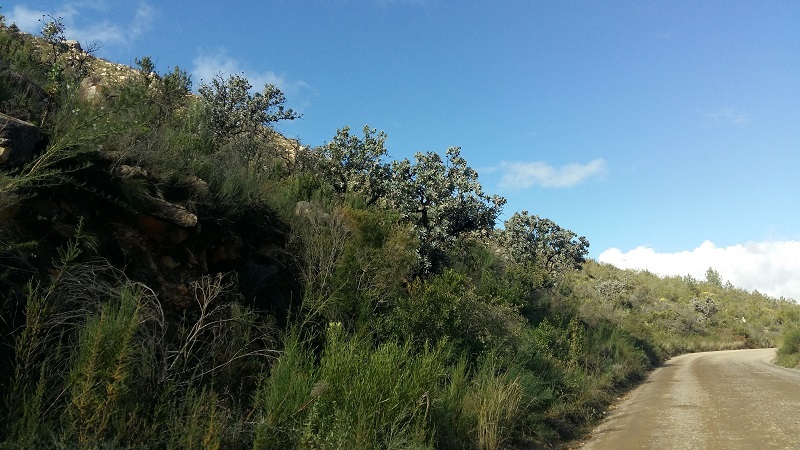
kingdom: Plantae
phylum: Tracheophyta
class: Magnoliopsida
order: Proteales
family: Proteaceae
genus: Protea
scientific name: Protea nitida
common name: Tree protea
